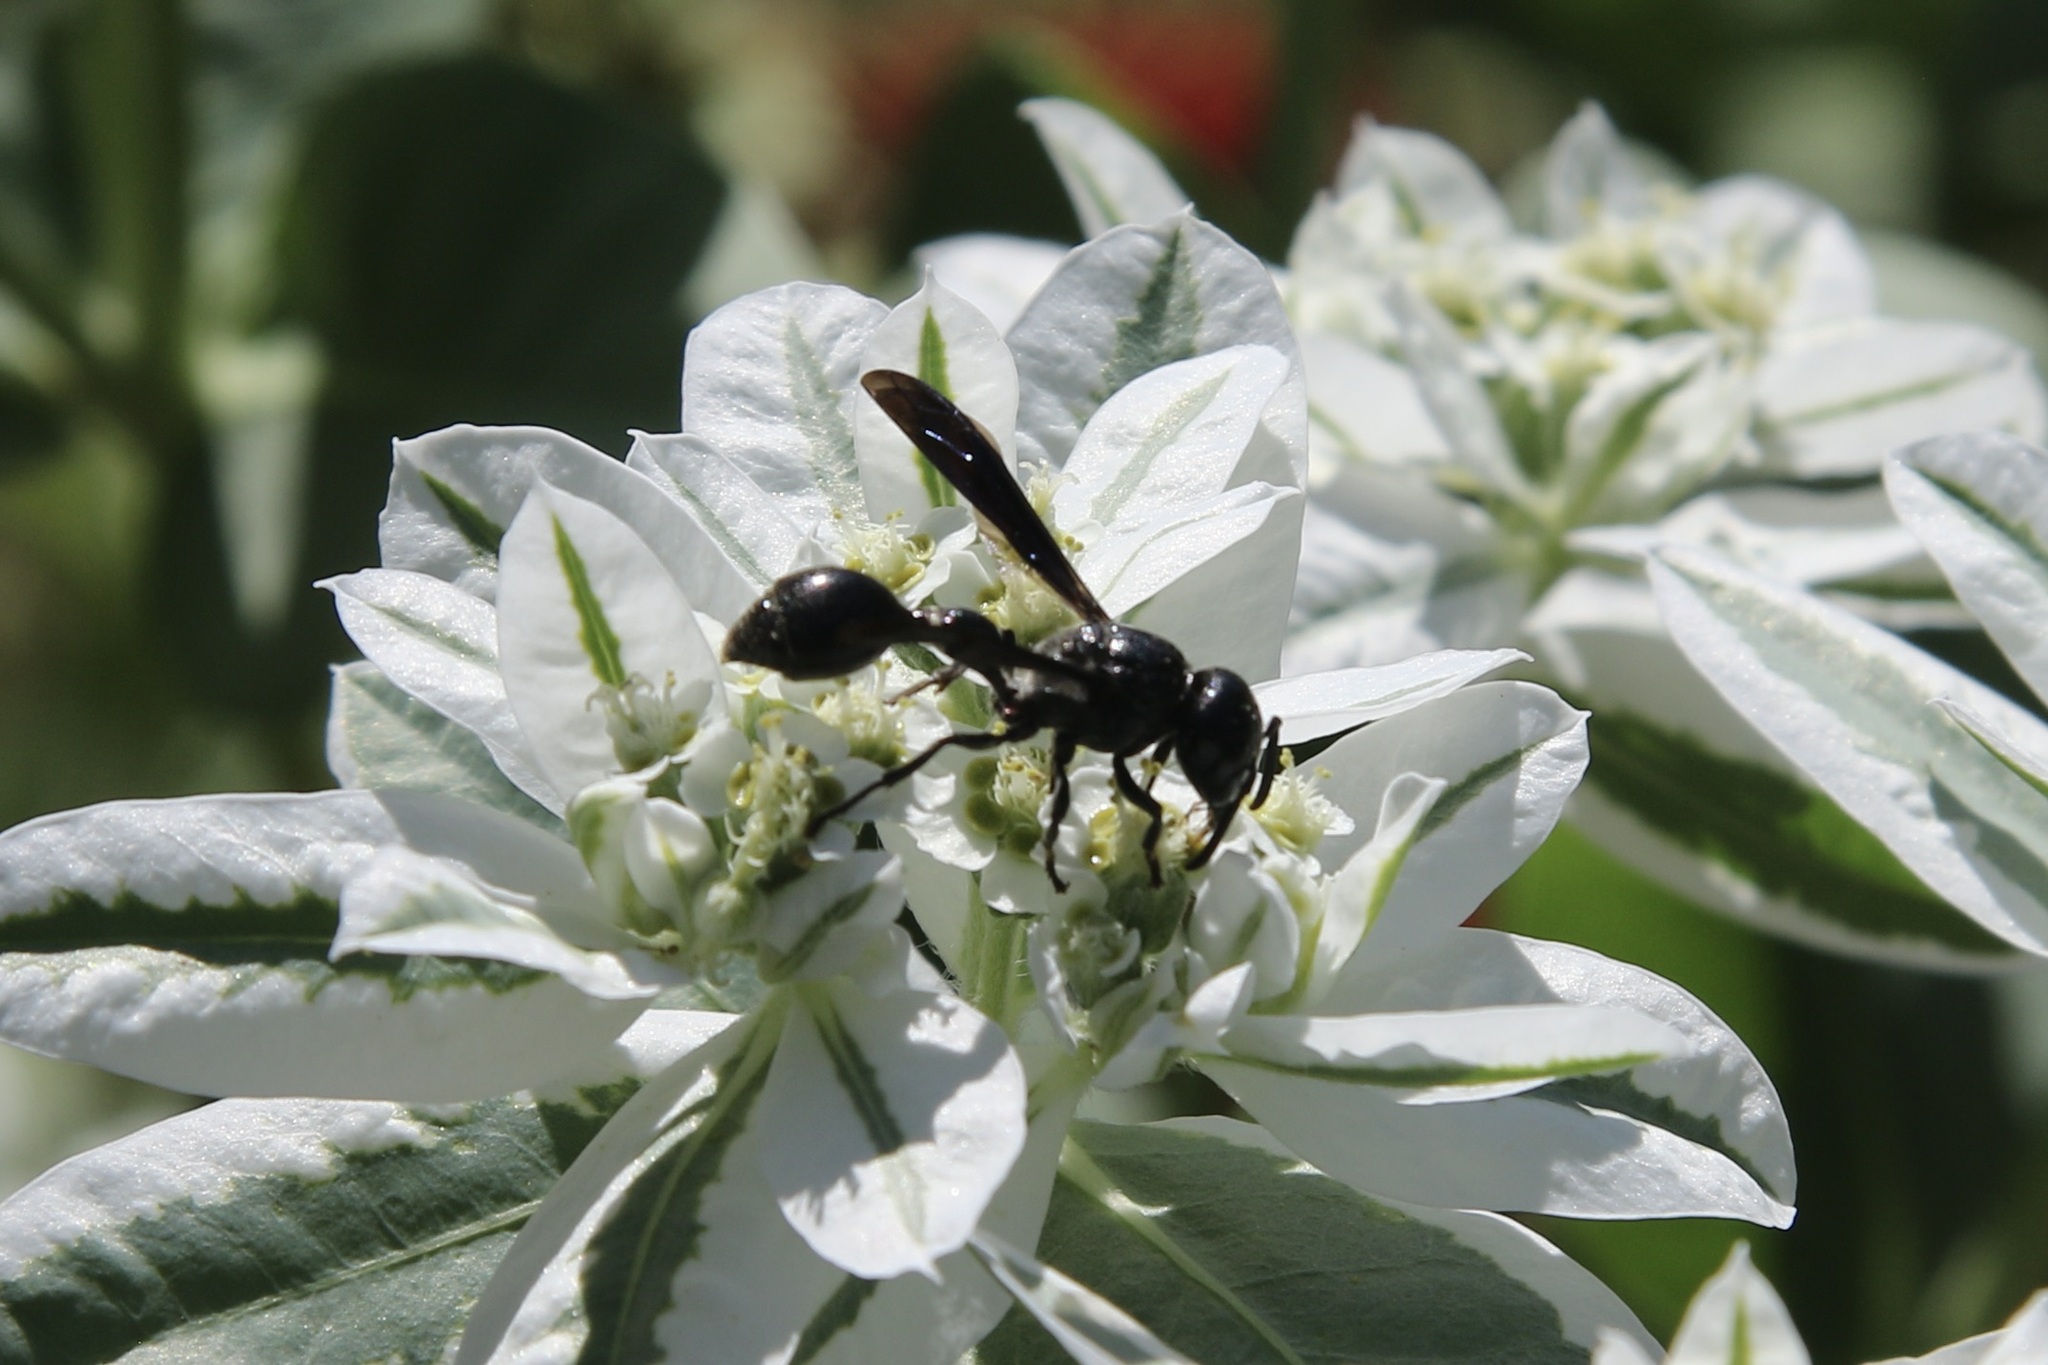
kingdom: Animalia
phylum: Arthropoda
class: Insecta
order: Hymenoptera
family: Eumenidae
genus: Zethus
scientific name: Zethus spinipes
